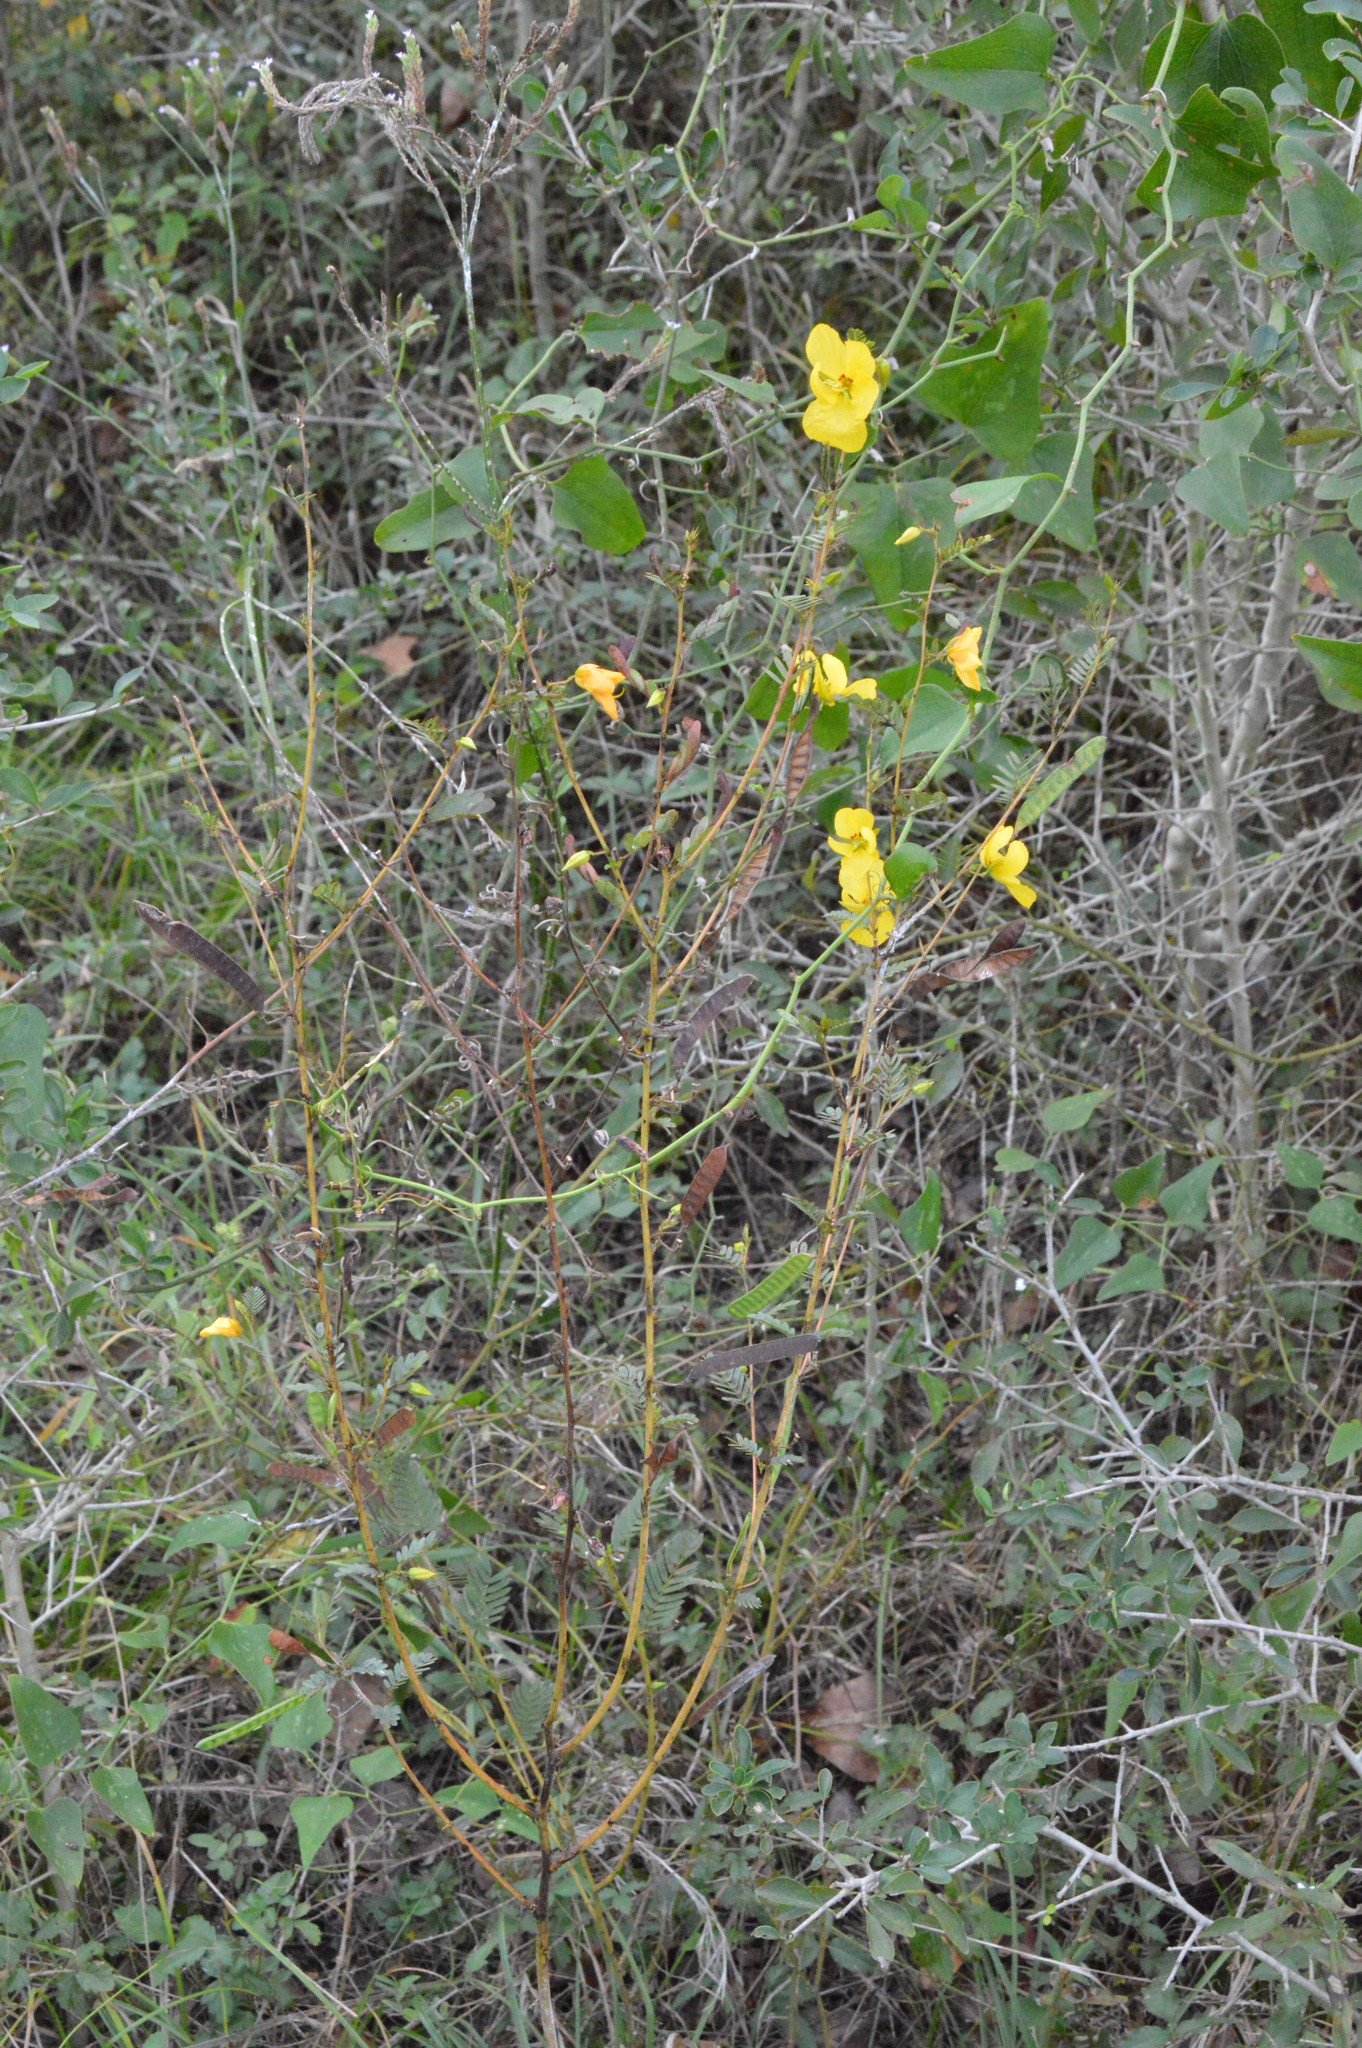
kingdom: Plantae
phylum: Tracheophyta
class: Magnoliopsida
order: Fabales
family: Fabaceae
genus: Chamaecrista
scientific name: Chamaecrista fasciculata
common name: Golden cassia
